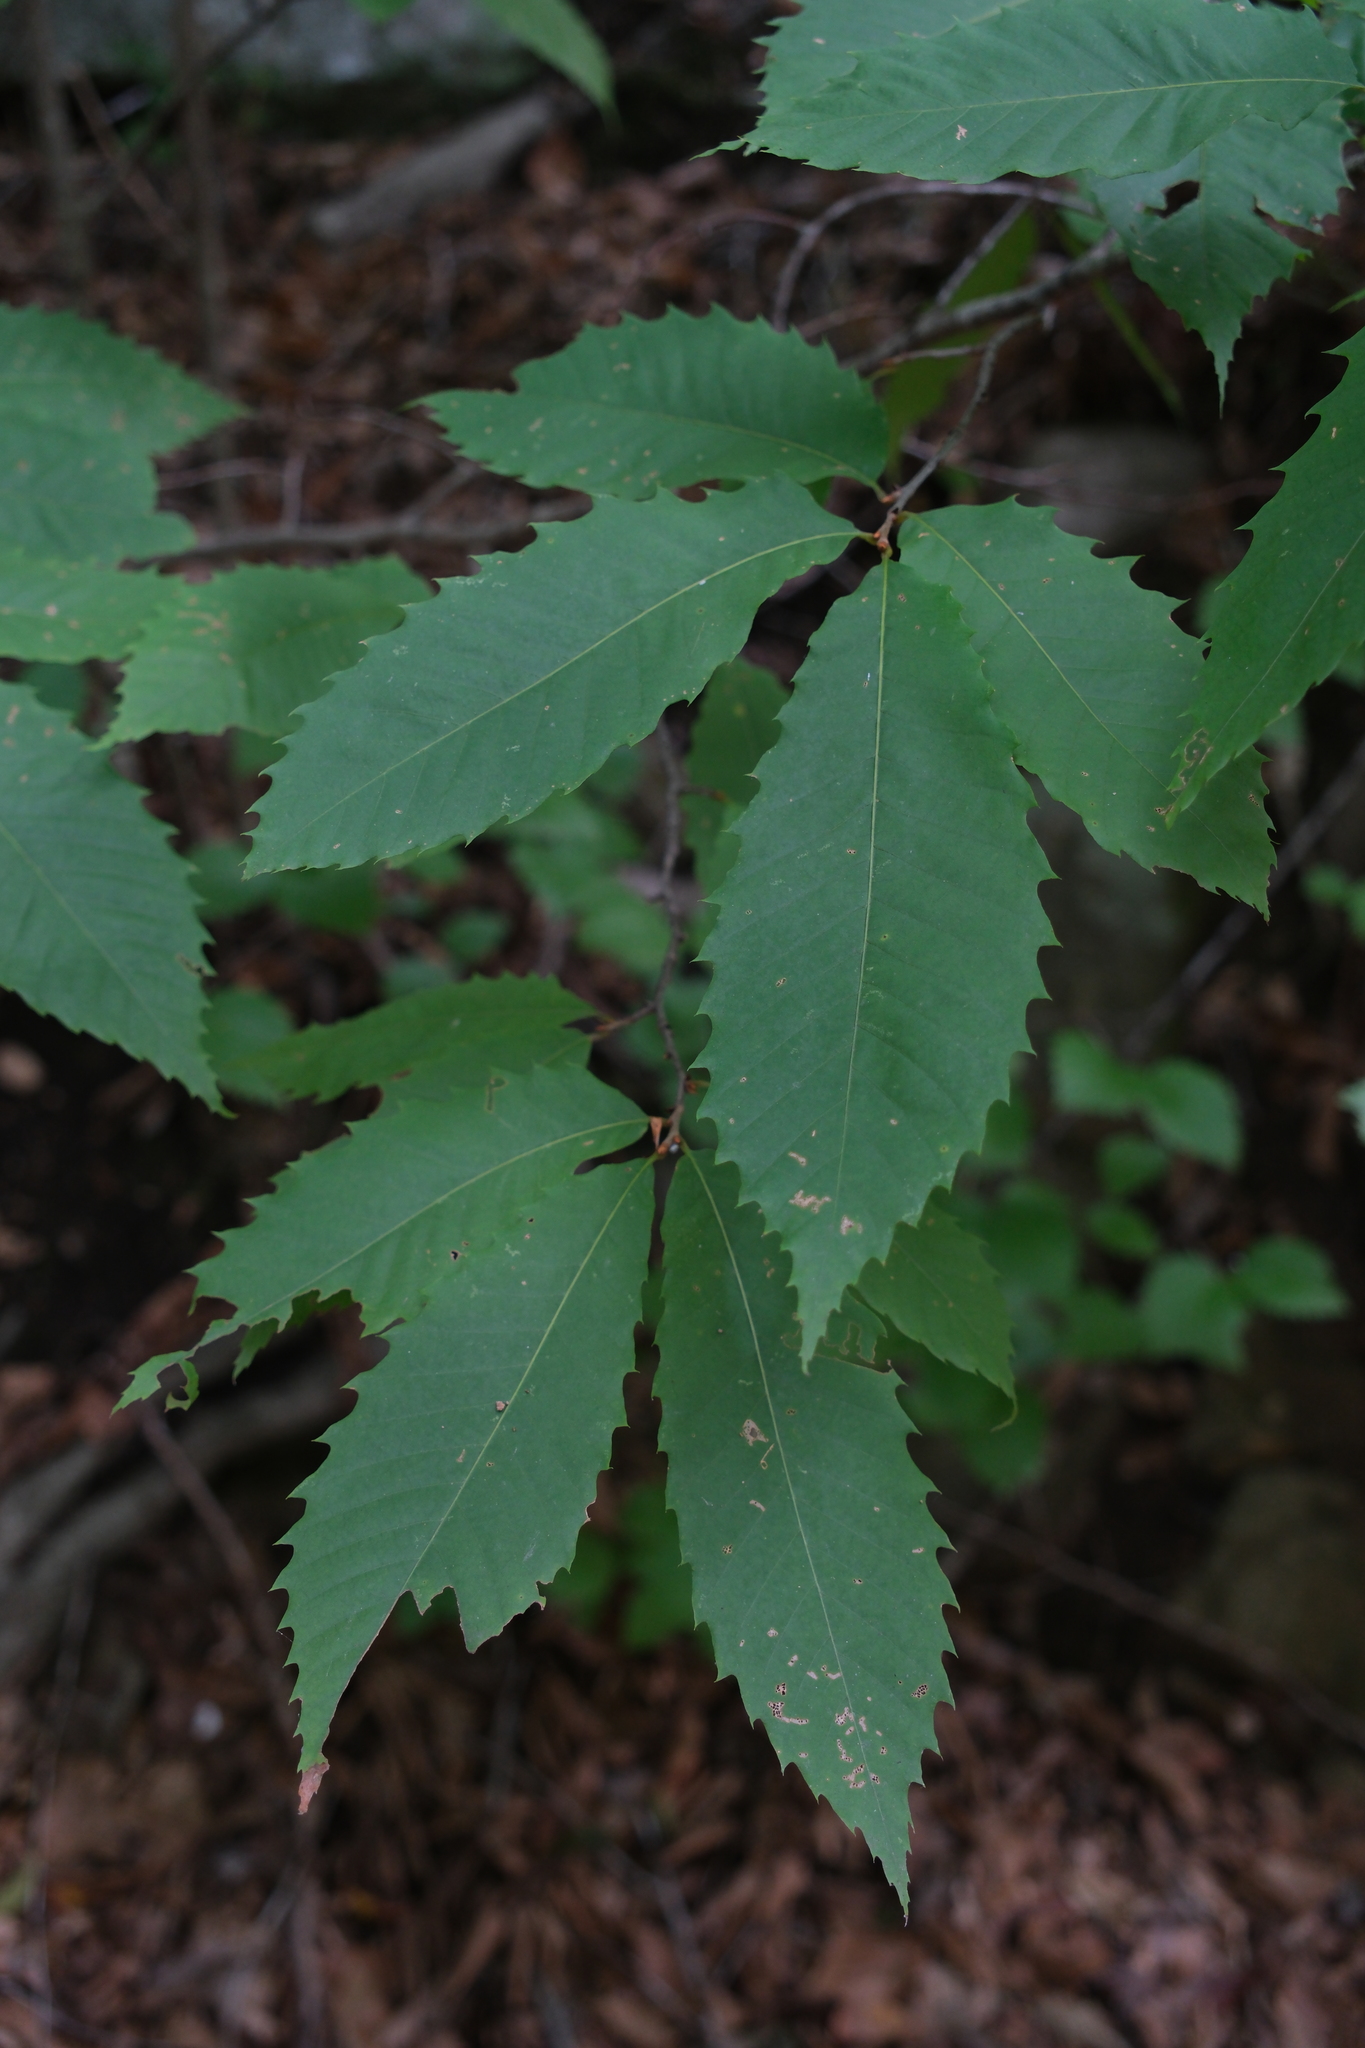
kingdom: Plantae
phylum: Tracheophyta
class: Magnoliopsida
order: Fagales
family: Fagaceae
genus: Castanea
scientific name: Castanea dentata
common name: American chestnut
